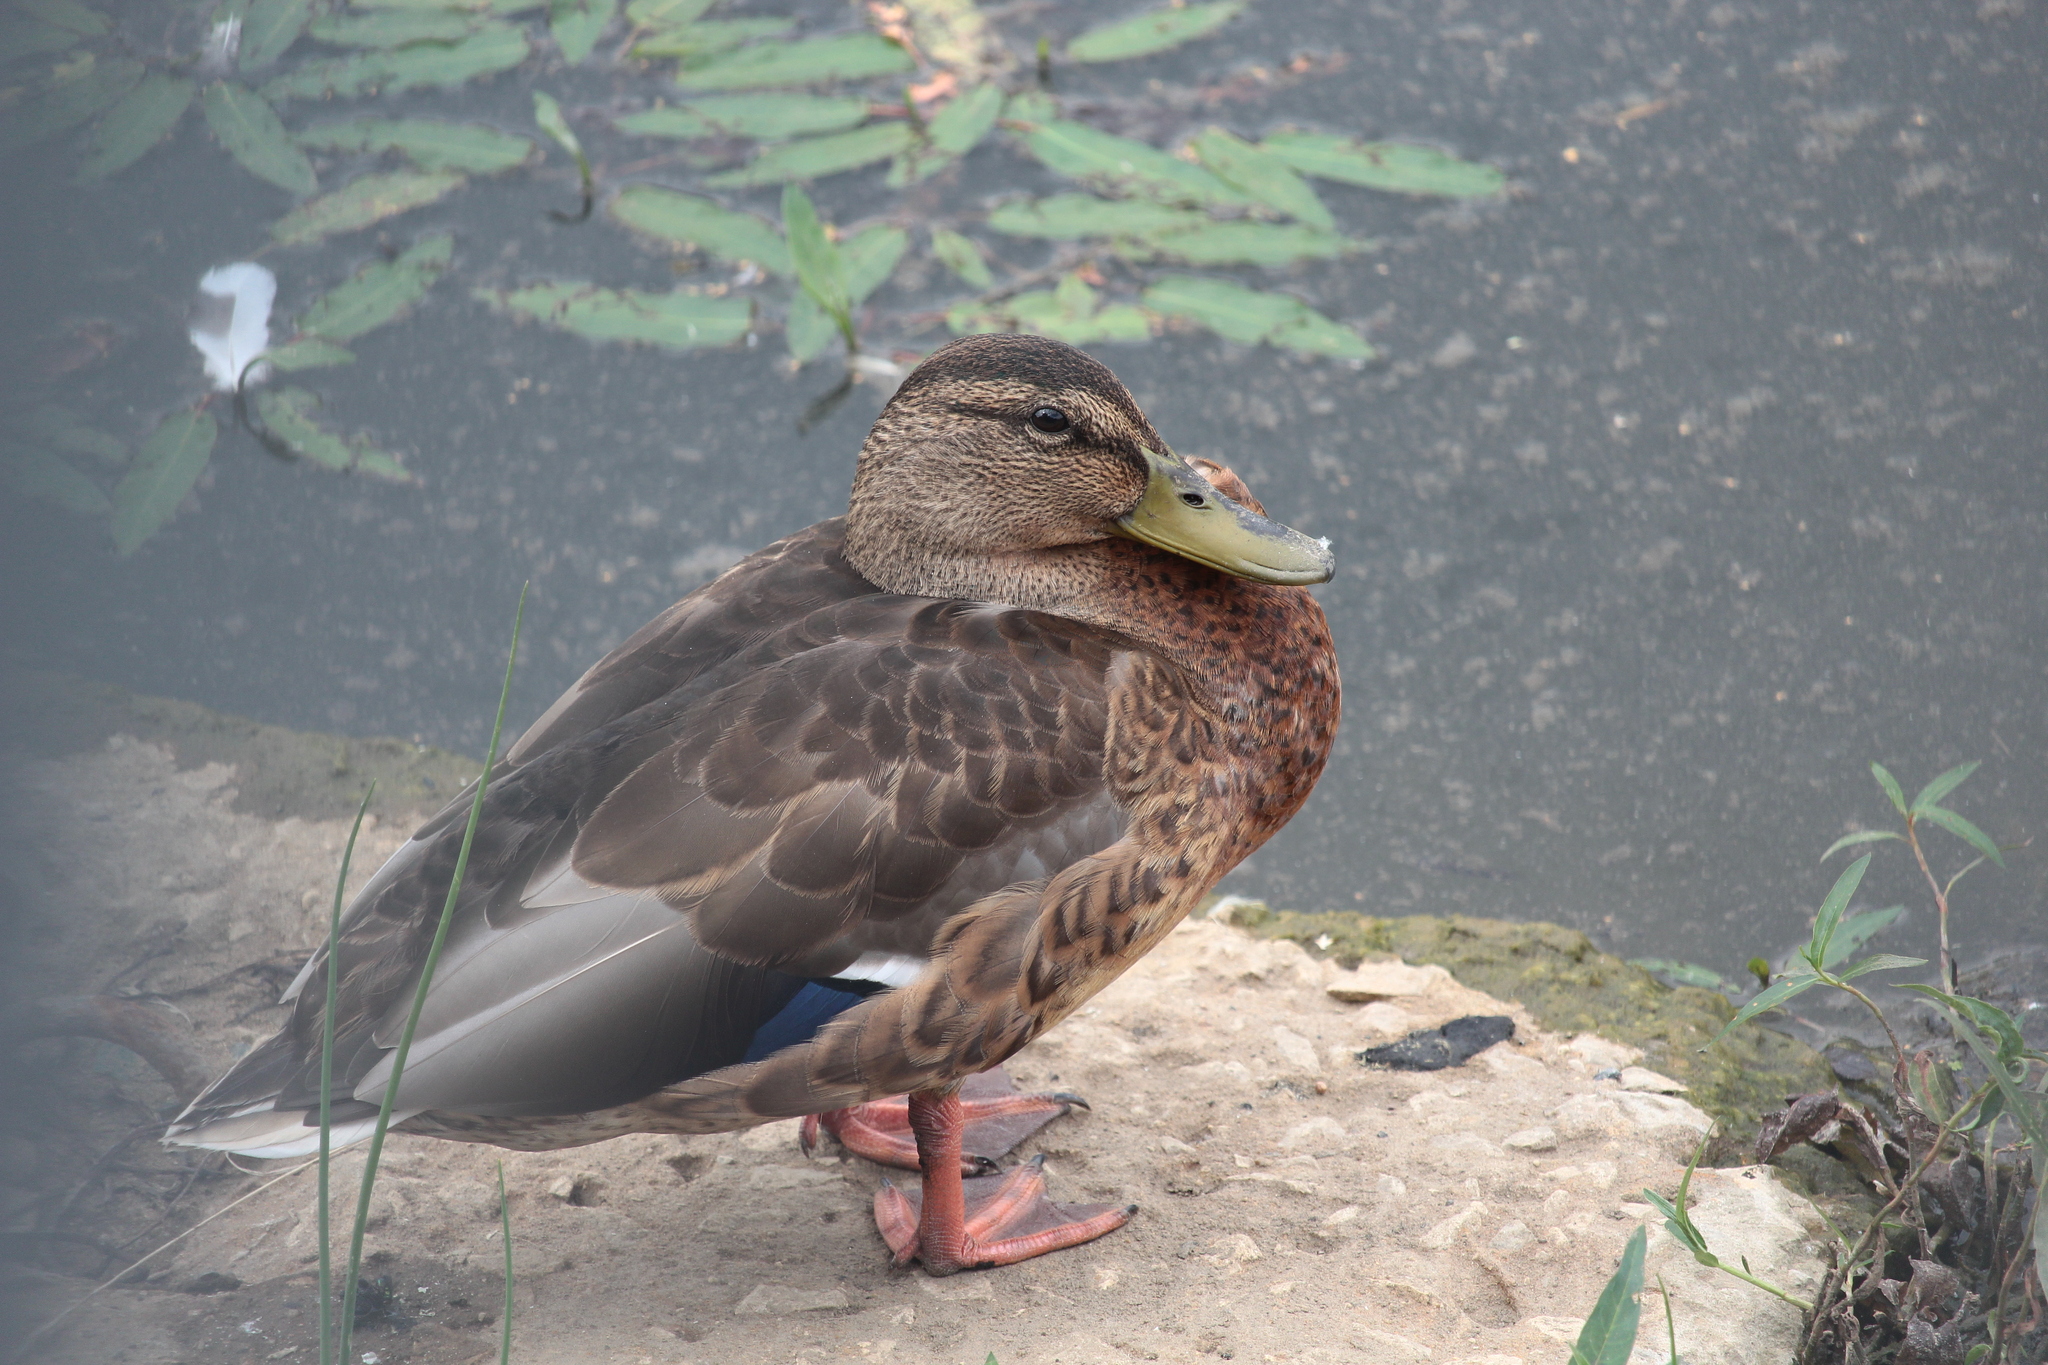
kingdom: Animalia
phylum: Chordata
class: Aves
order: Anseriformes
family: Anatidae
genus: Anas
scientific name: Anas platyrhynchos
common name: Mallard
